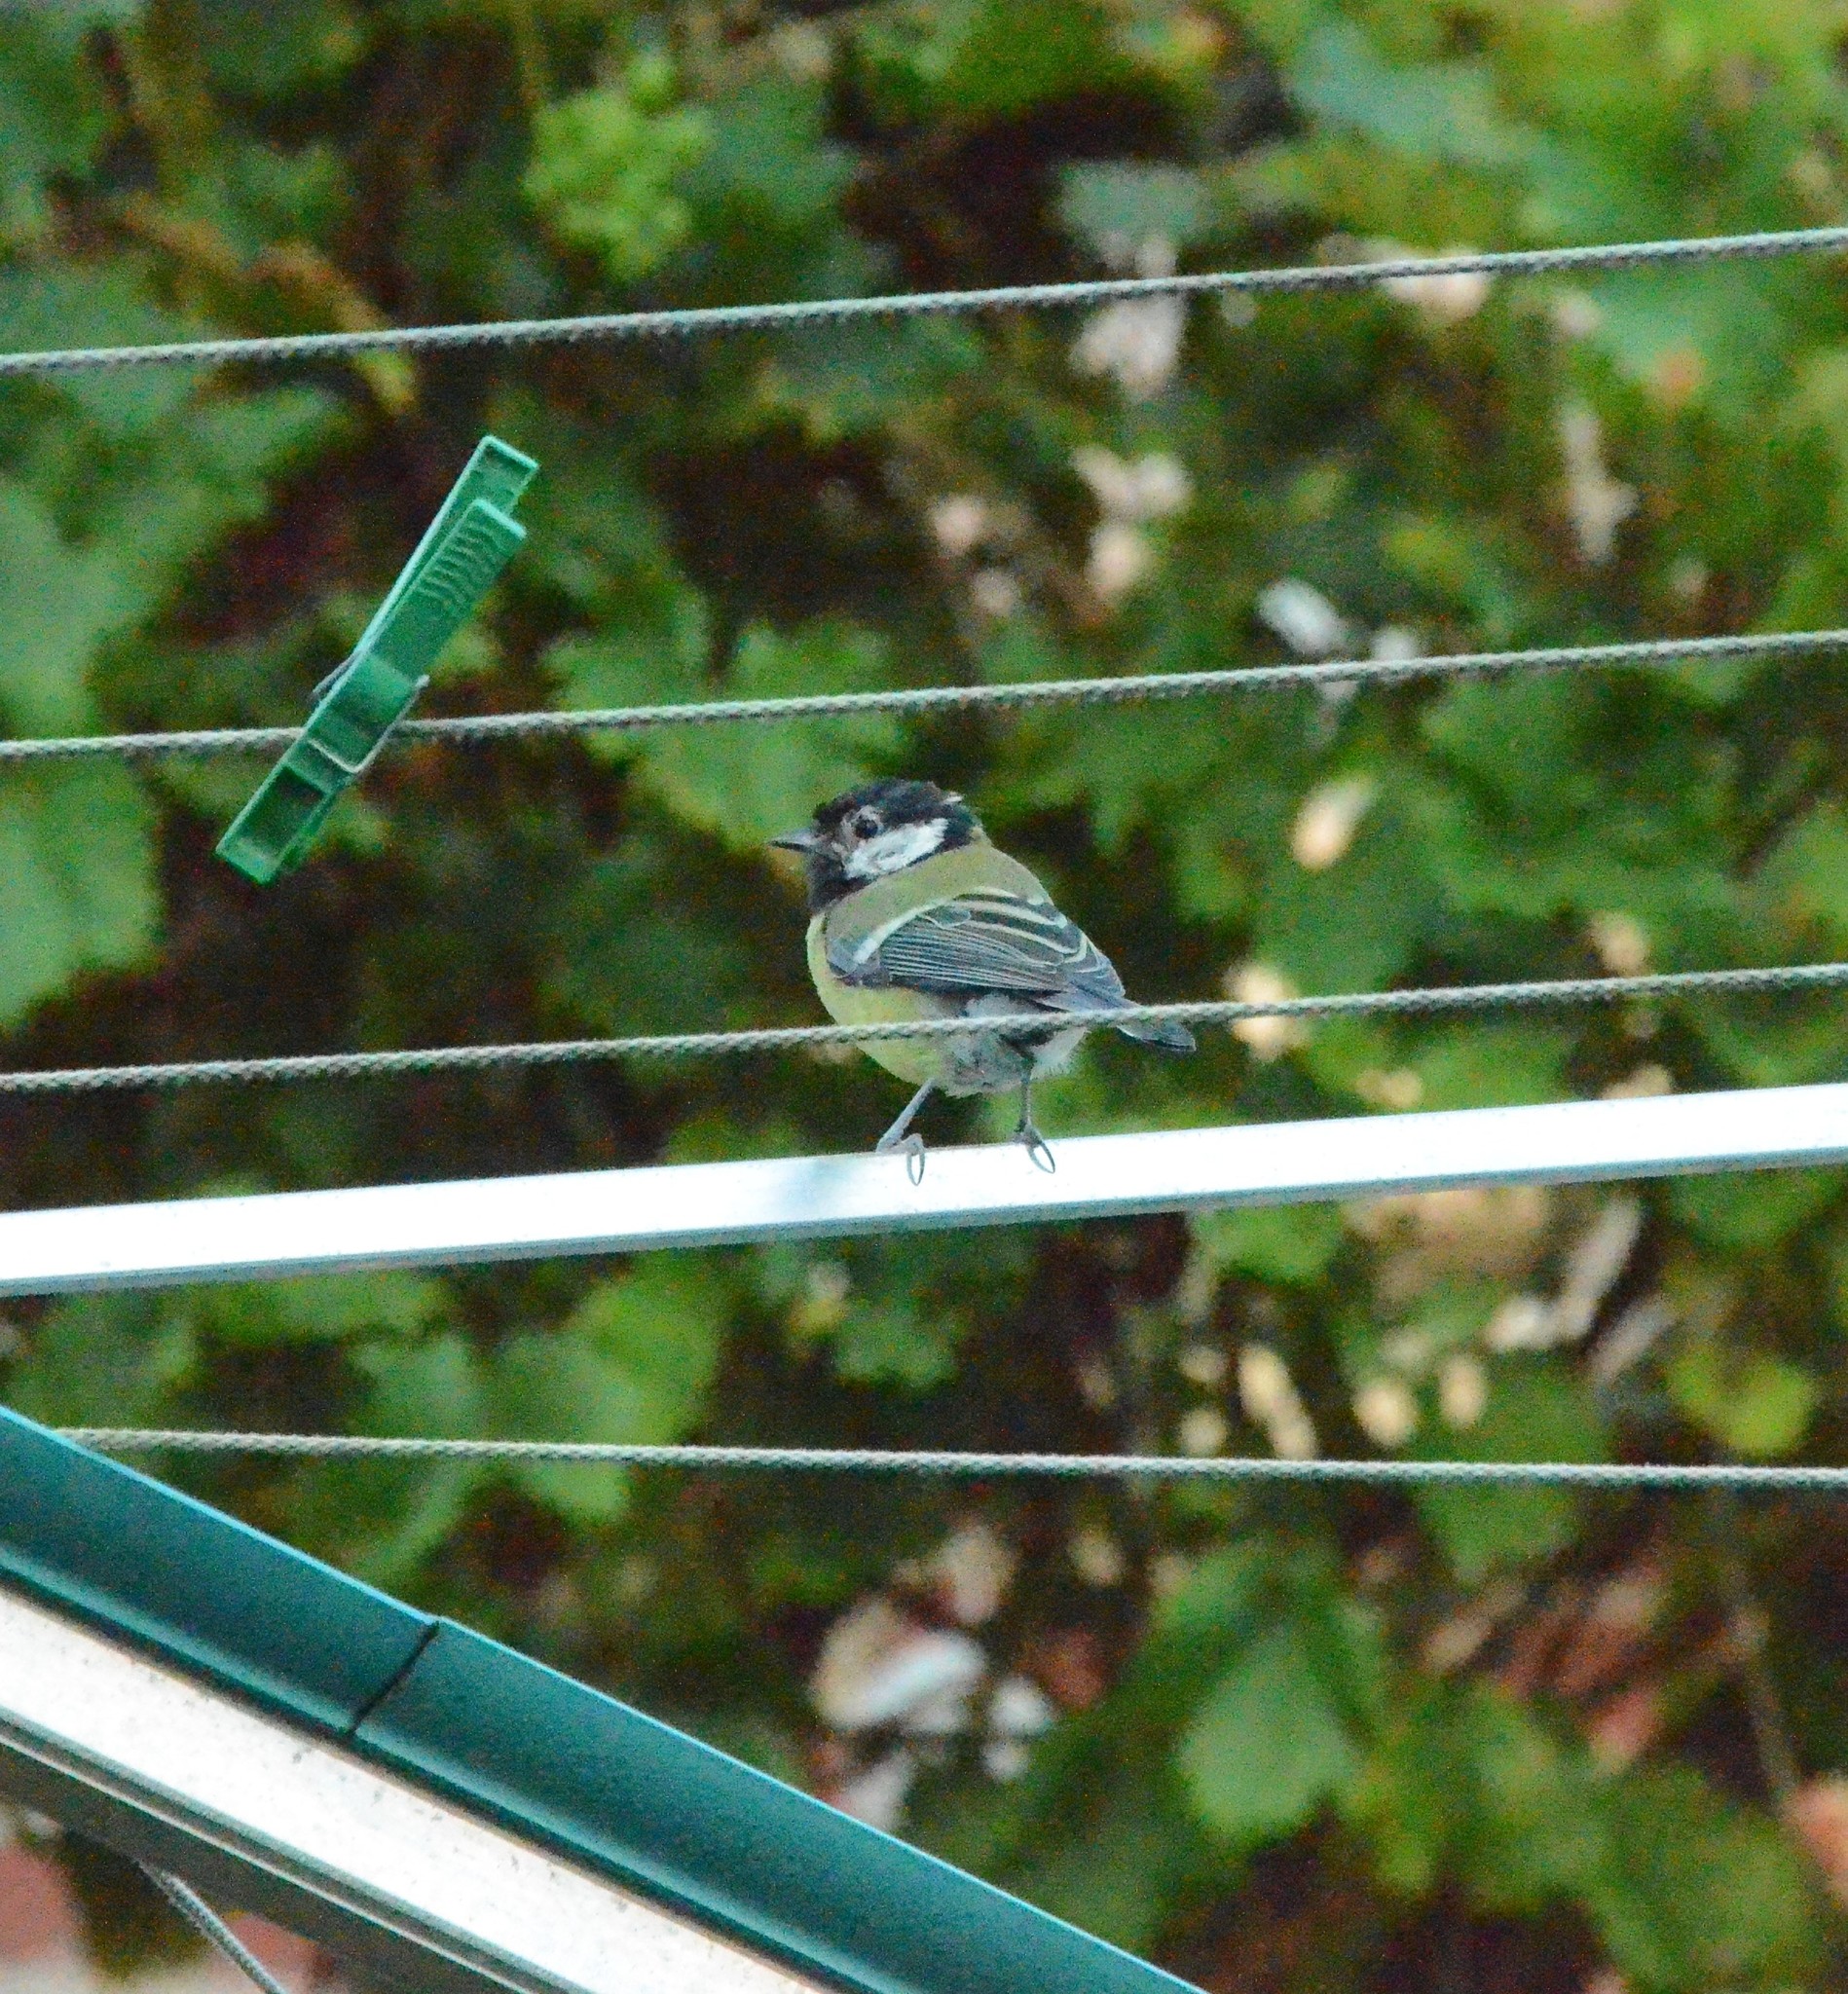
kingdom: Animalia
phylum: Chordata
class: Aves
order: Passeriformes
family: Paridae
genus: Parus
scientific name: Parus major
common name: Great tit
